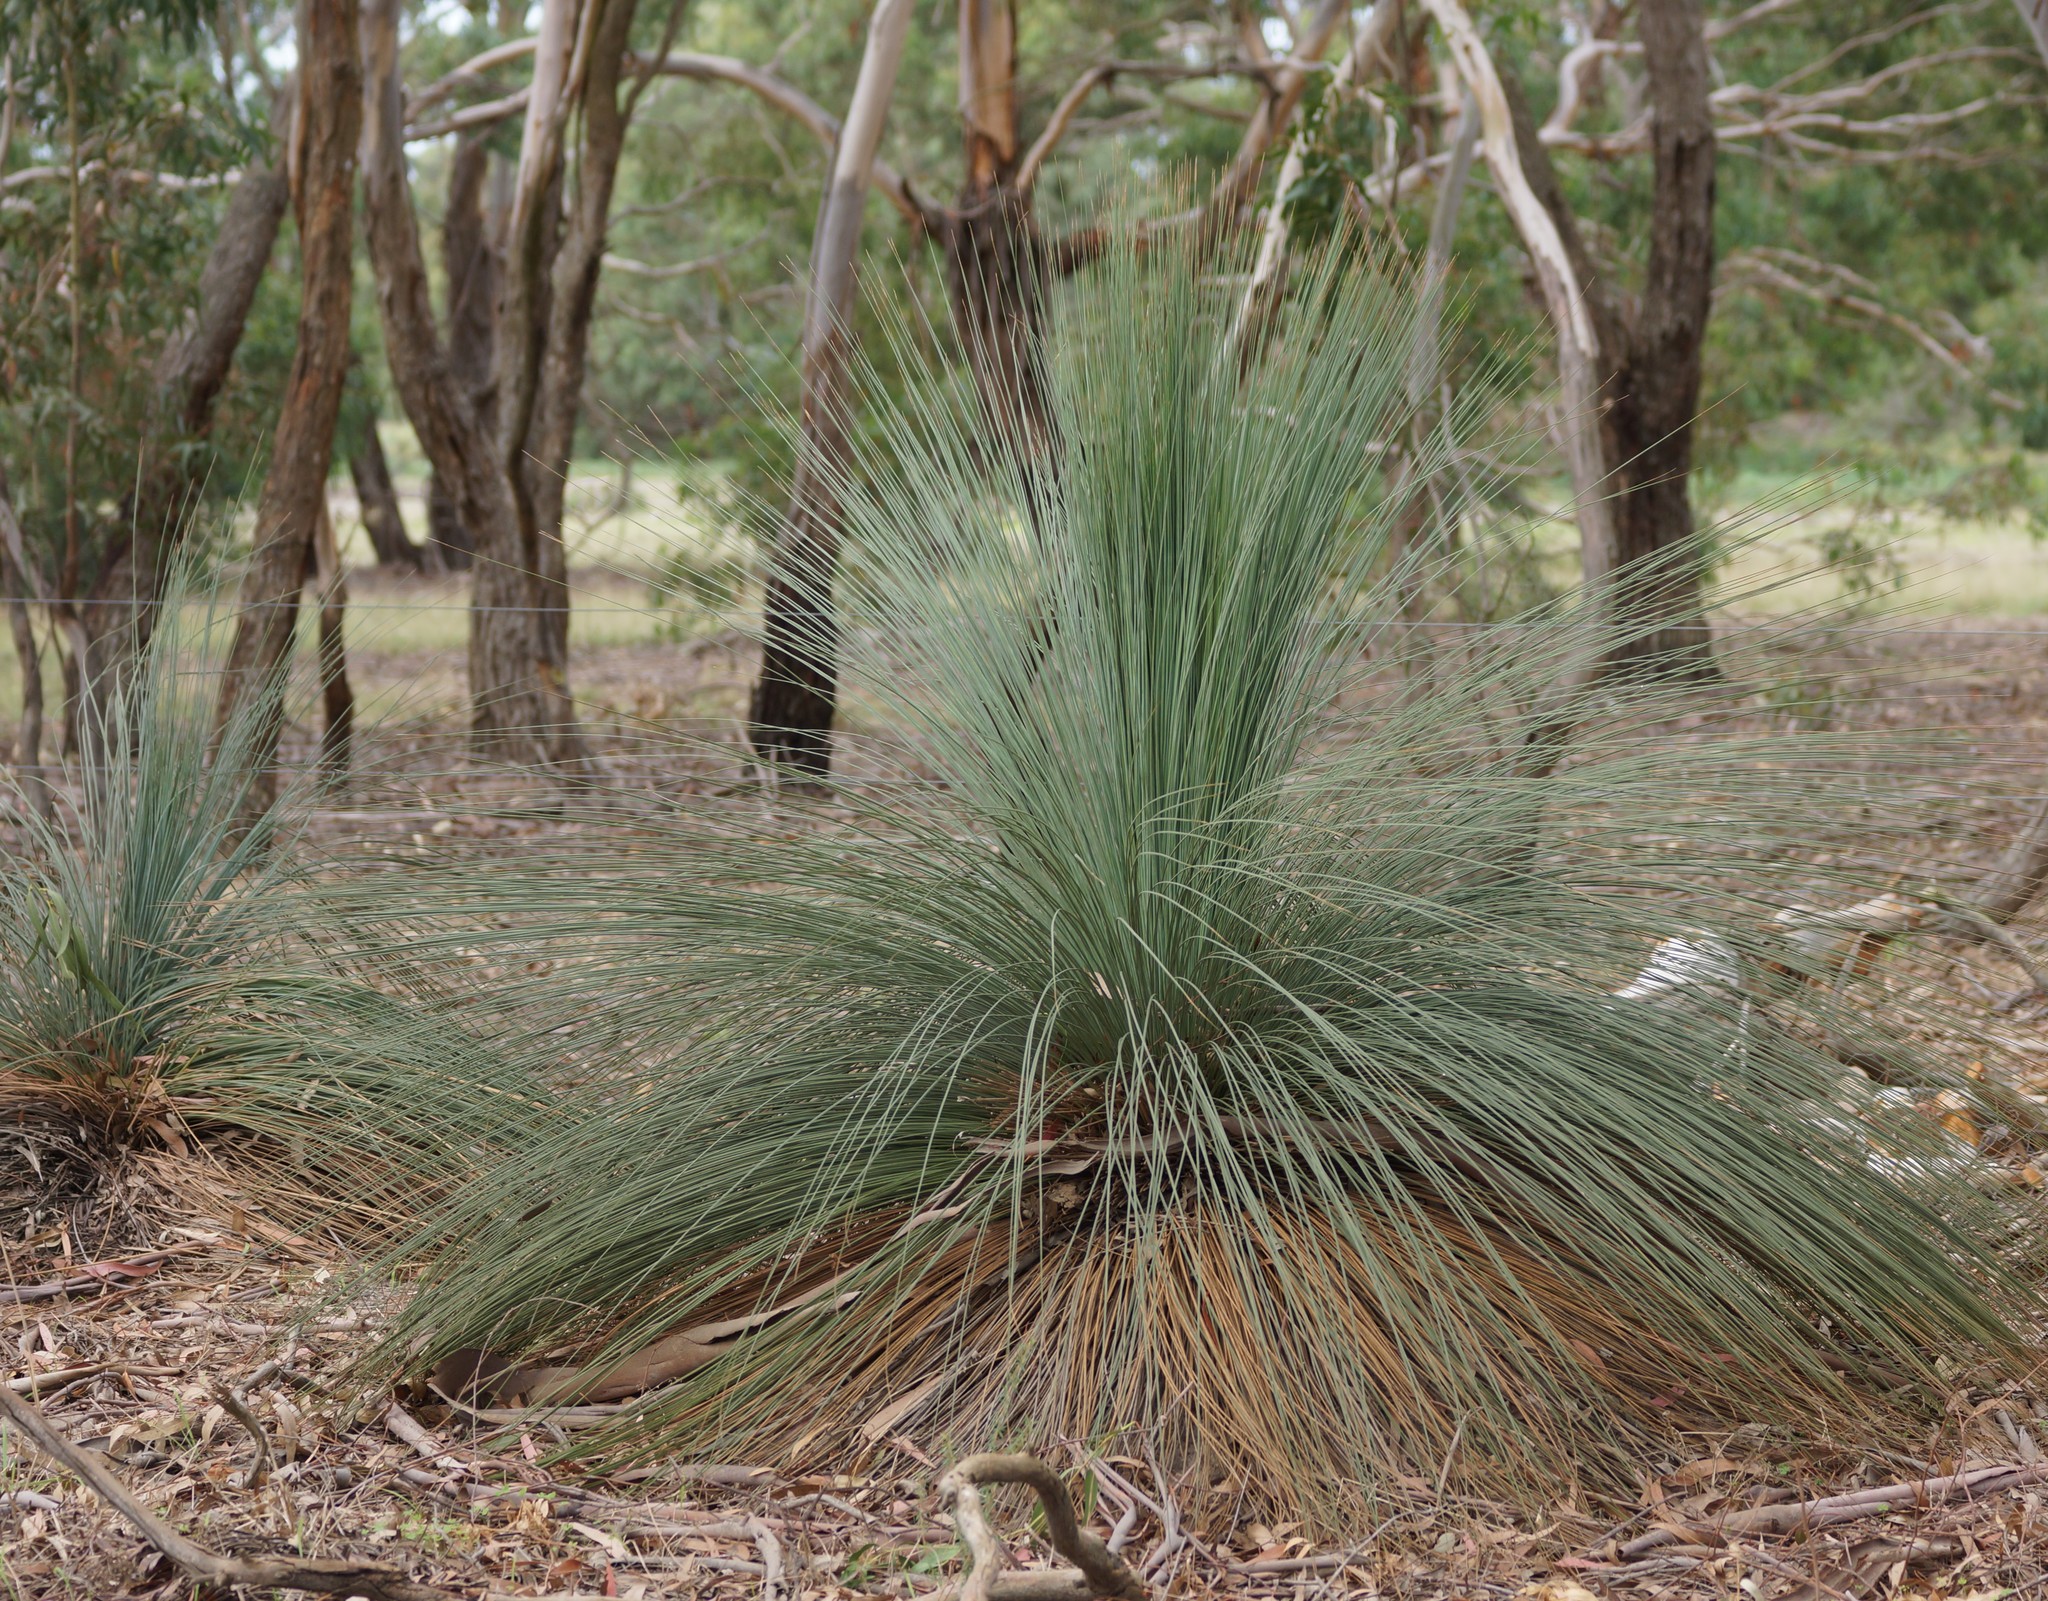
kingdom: Plantae
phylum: Tracheophyta
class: Liliopsida
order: Asparagales
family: Asphodelaceae
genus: Xanthorrhoea
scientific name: Xanthorrhoea australis
